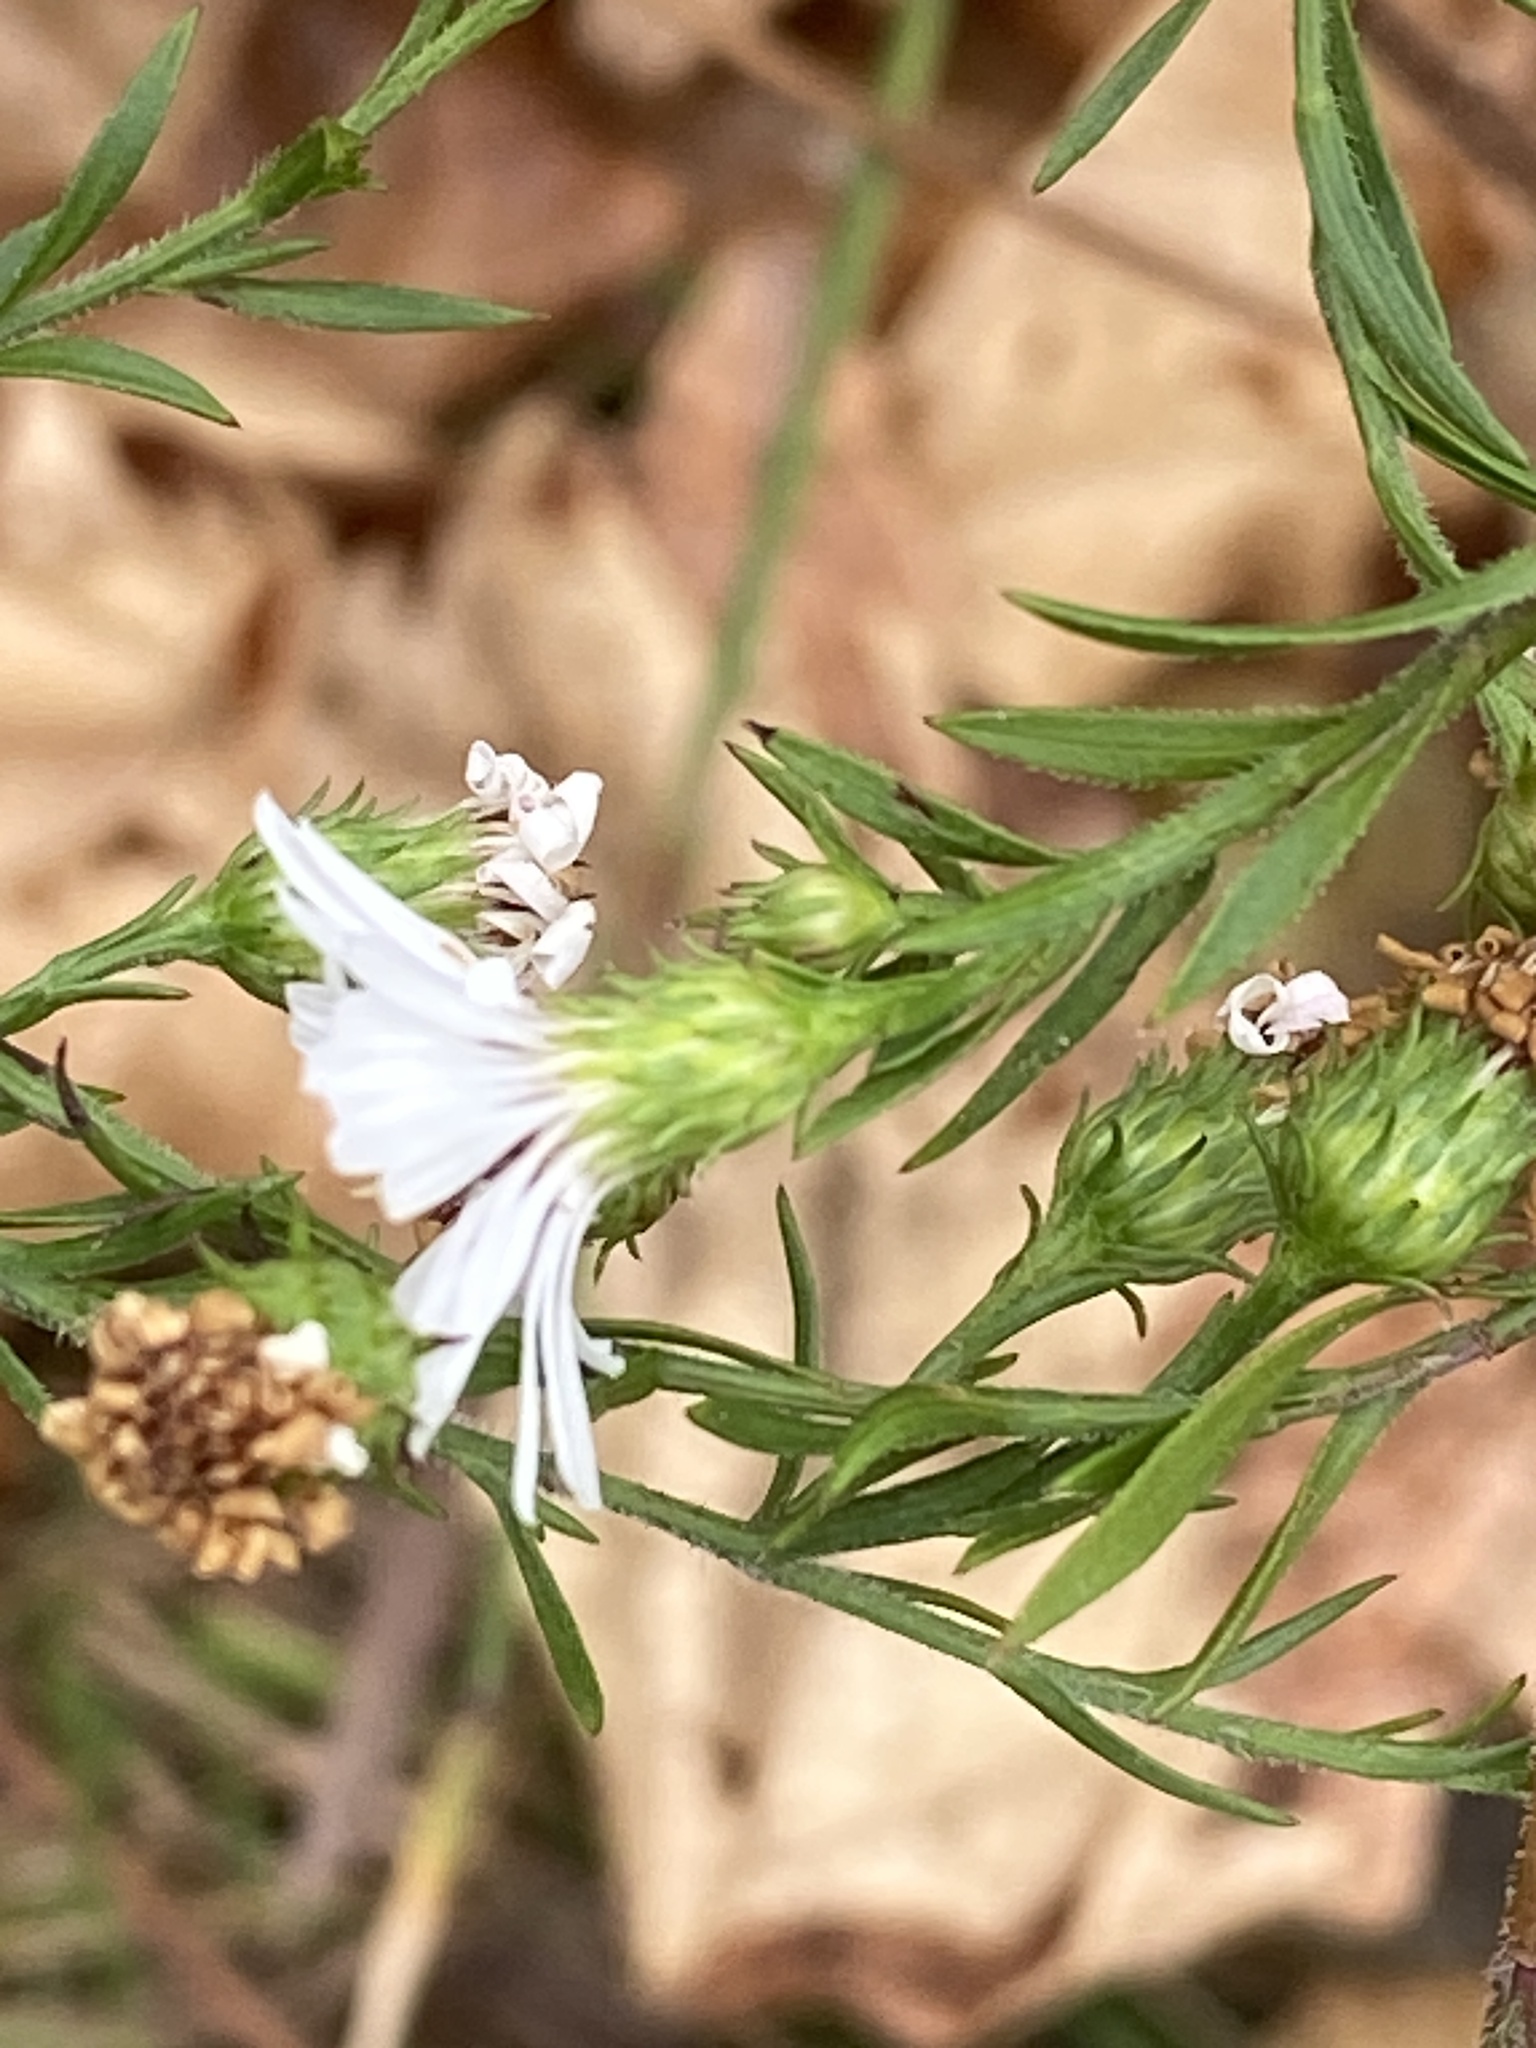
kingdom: Plantae
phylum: Tracheophyta
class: Magnoliopsida
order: Asterales
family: Asteraceae
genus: Symphyotrichum
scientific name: Symphyotrichum pilosum
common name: Awl aster
